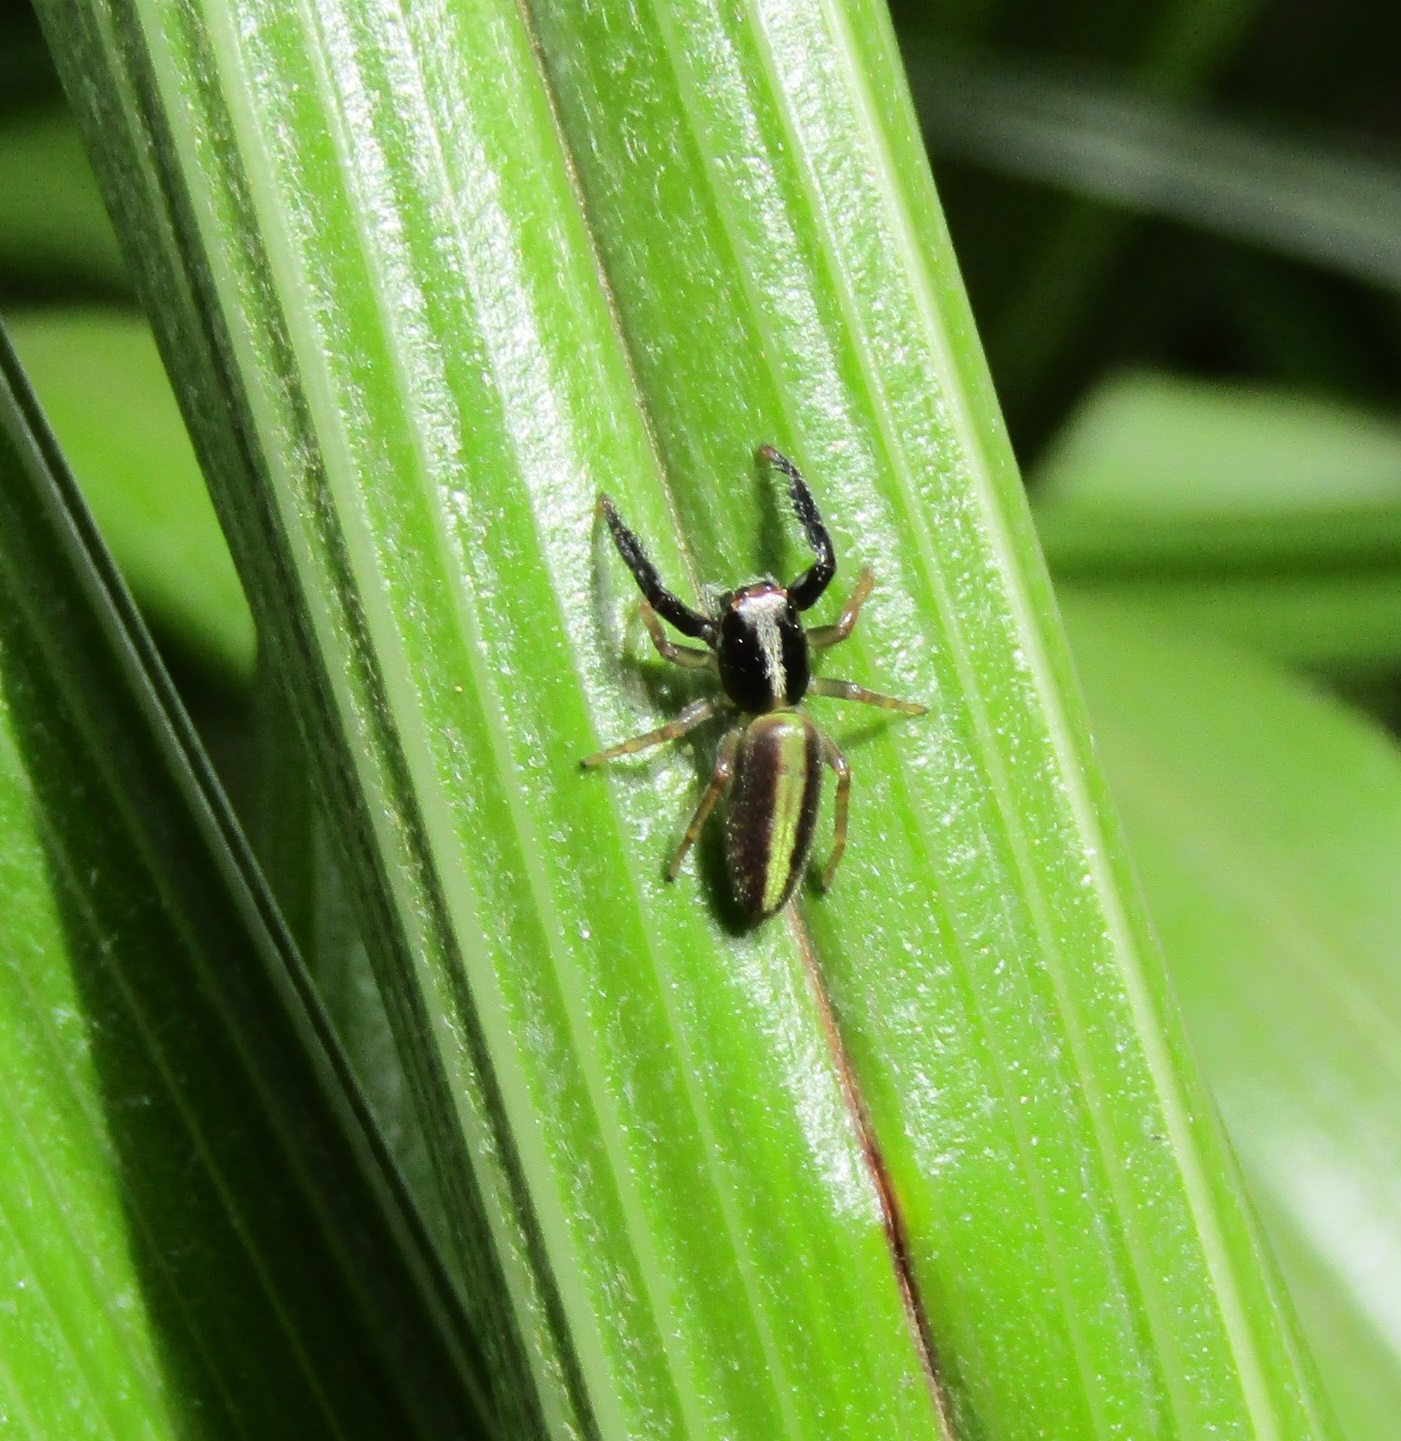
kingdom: Animalia
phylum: Arthropoda
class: Arachnida
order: Araneae
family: Salticidae
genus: Trite
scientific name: Trite planiceps
